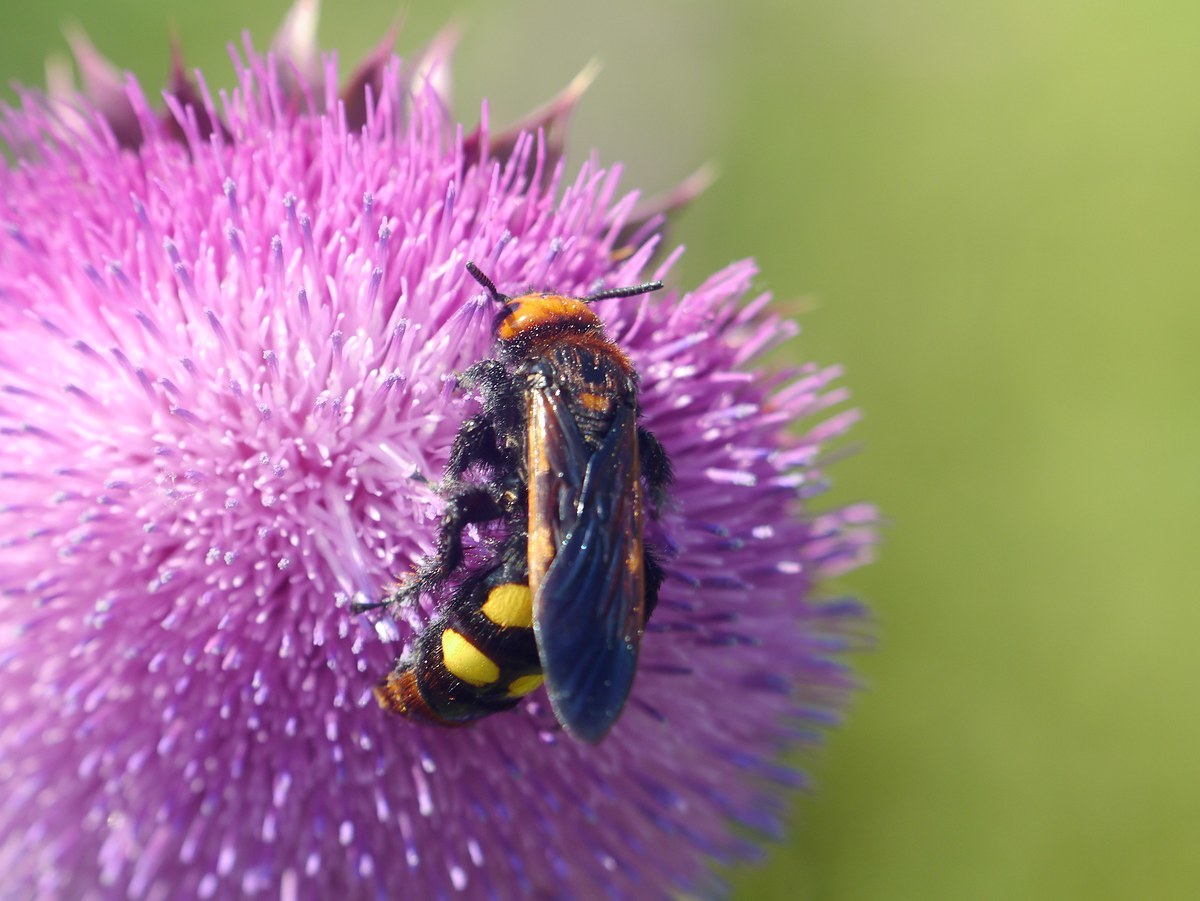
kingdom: Animalia
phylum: Arthropoda
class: Insecta
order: Hymenoptera
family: Scoliidae
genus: Megascolia
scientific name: Megascolia maculata
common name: Mammoth wasp
